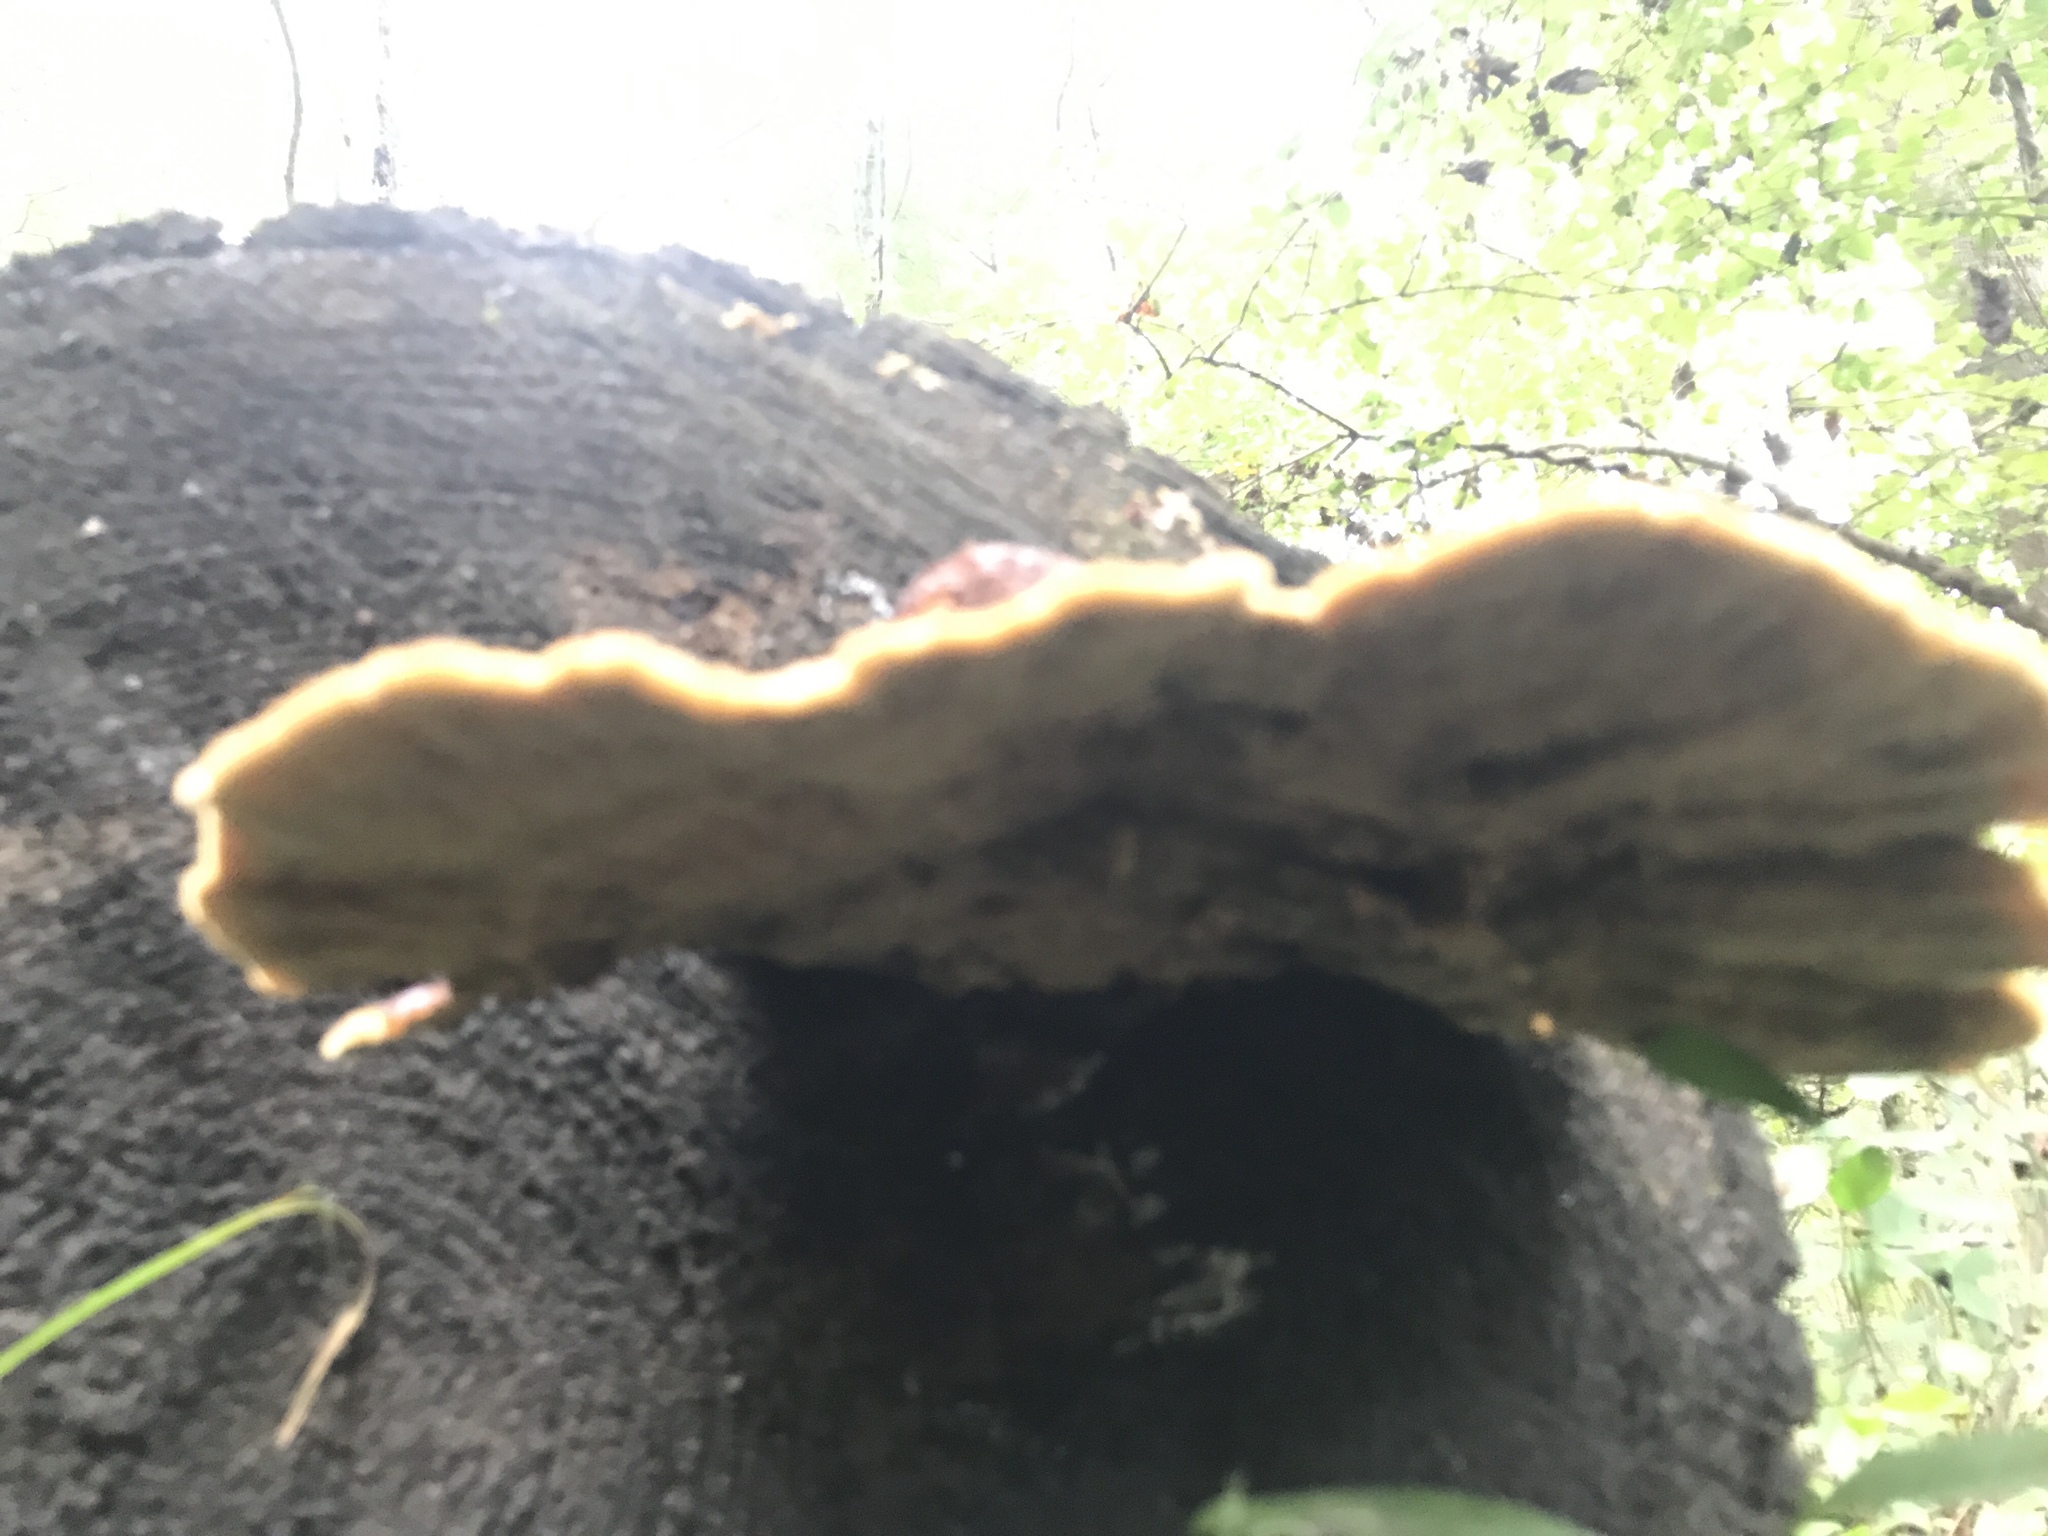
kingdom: Fungi
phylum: Basidiomycota
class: Agaricomycetes
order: Polyporales
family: Laetiporaceae
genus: Phaeolus
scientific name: Phaeolus schweinitzii
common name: Dyer's mazegill
